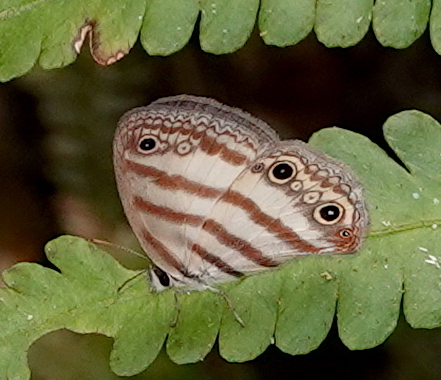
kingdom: Animalia
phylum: Arthropoda
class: Insecta
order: Lepidoptera
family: Nymphalidae
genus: Euptychia
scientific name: Euptychia mollina
